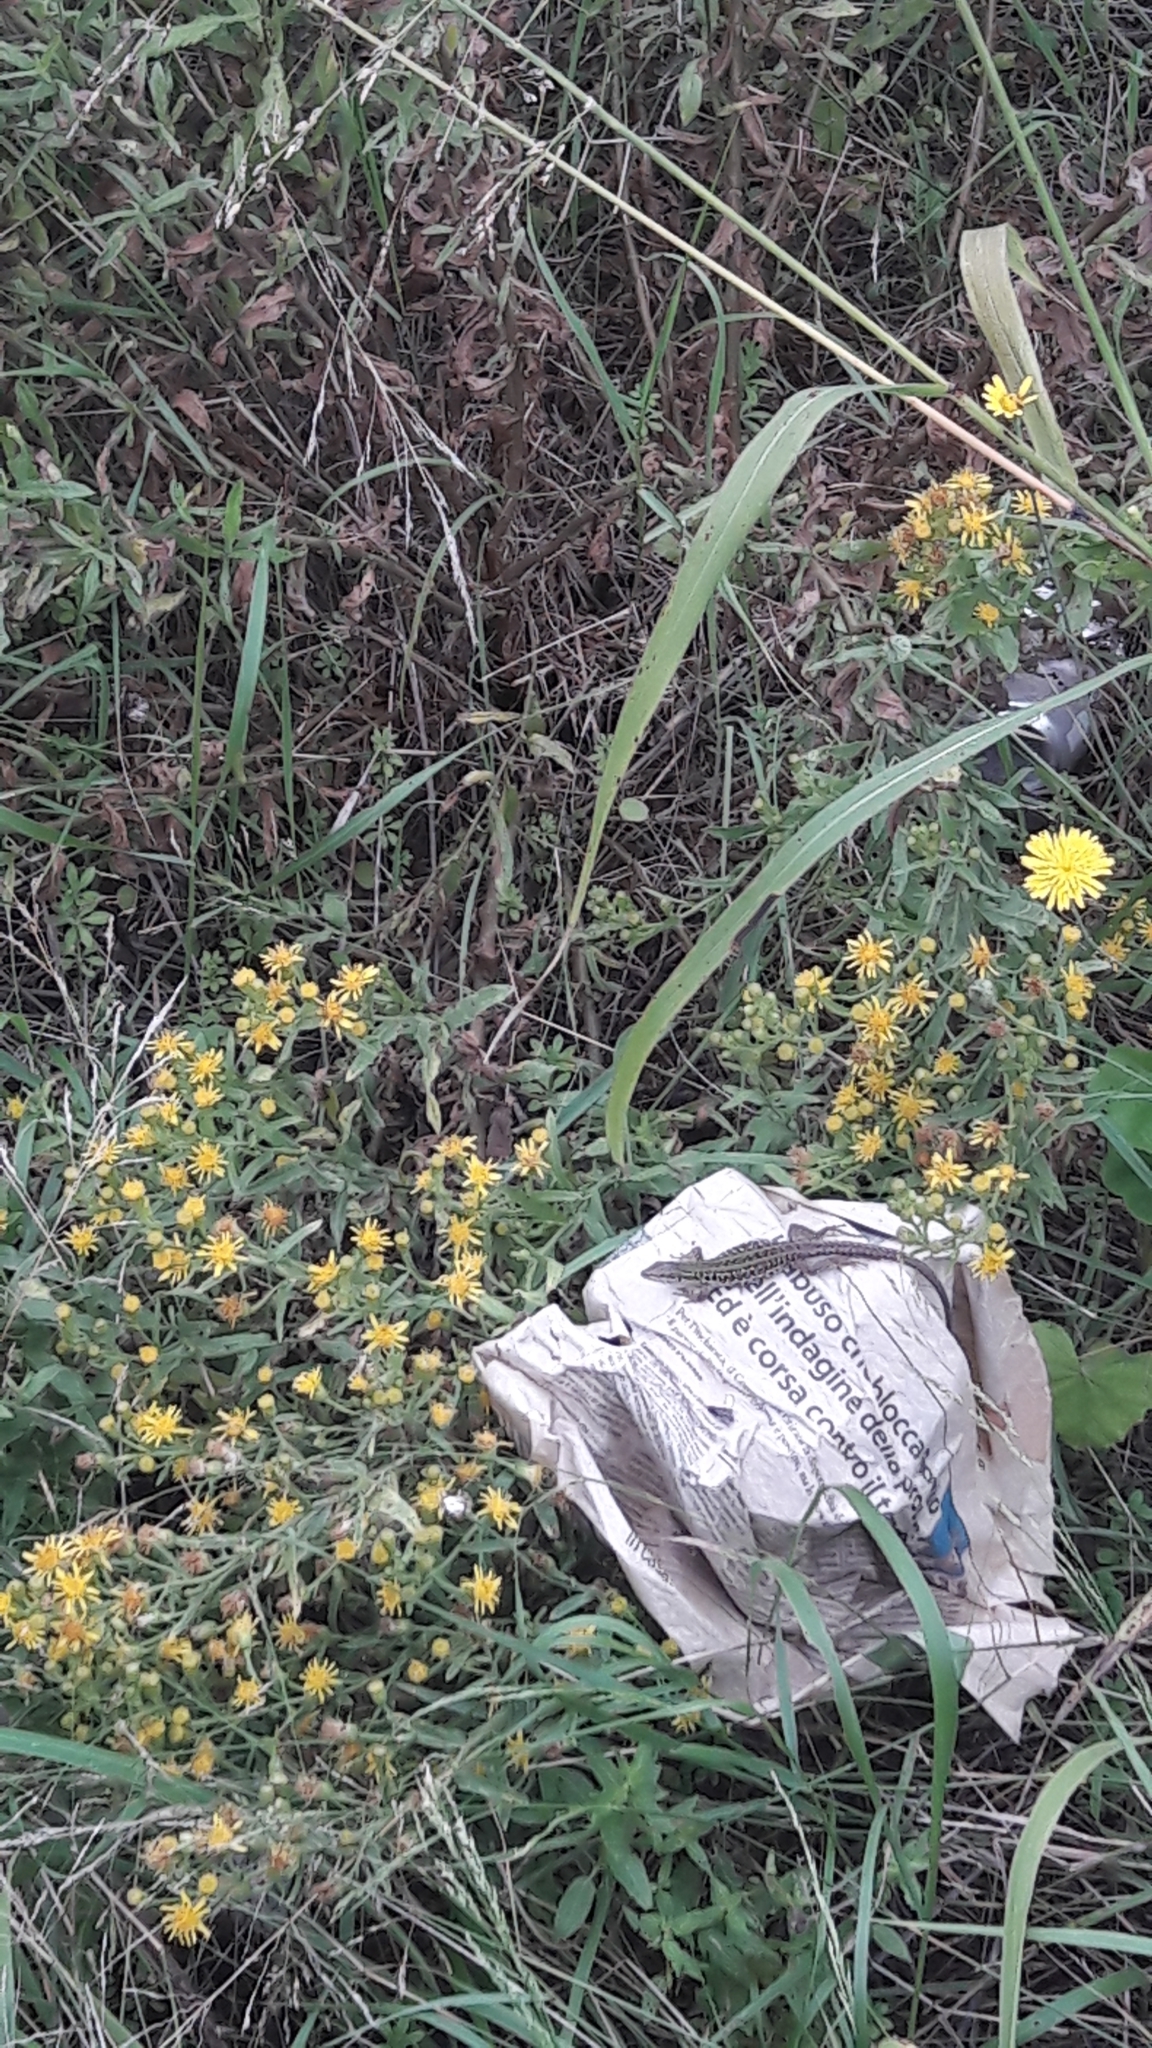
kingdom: Animalia
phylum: Chordata
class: Squamata
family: Lacertidae
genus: Podarcis
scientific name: Podarcis siculus
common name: Italian wall lizard
